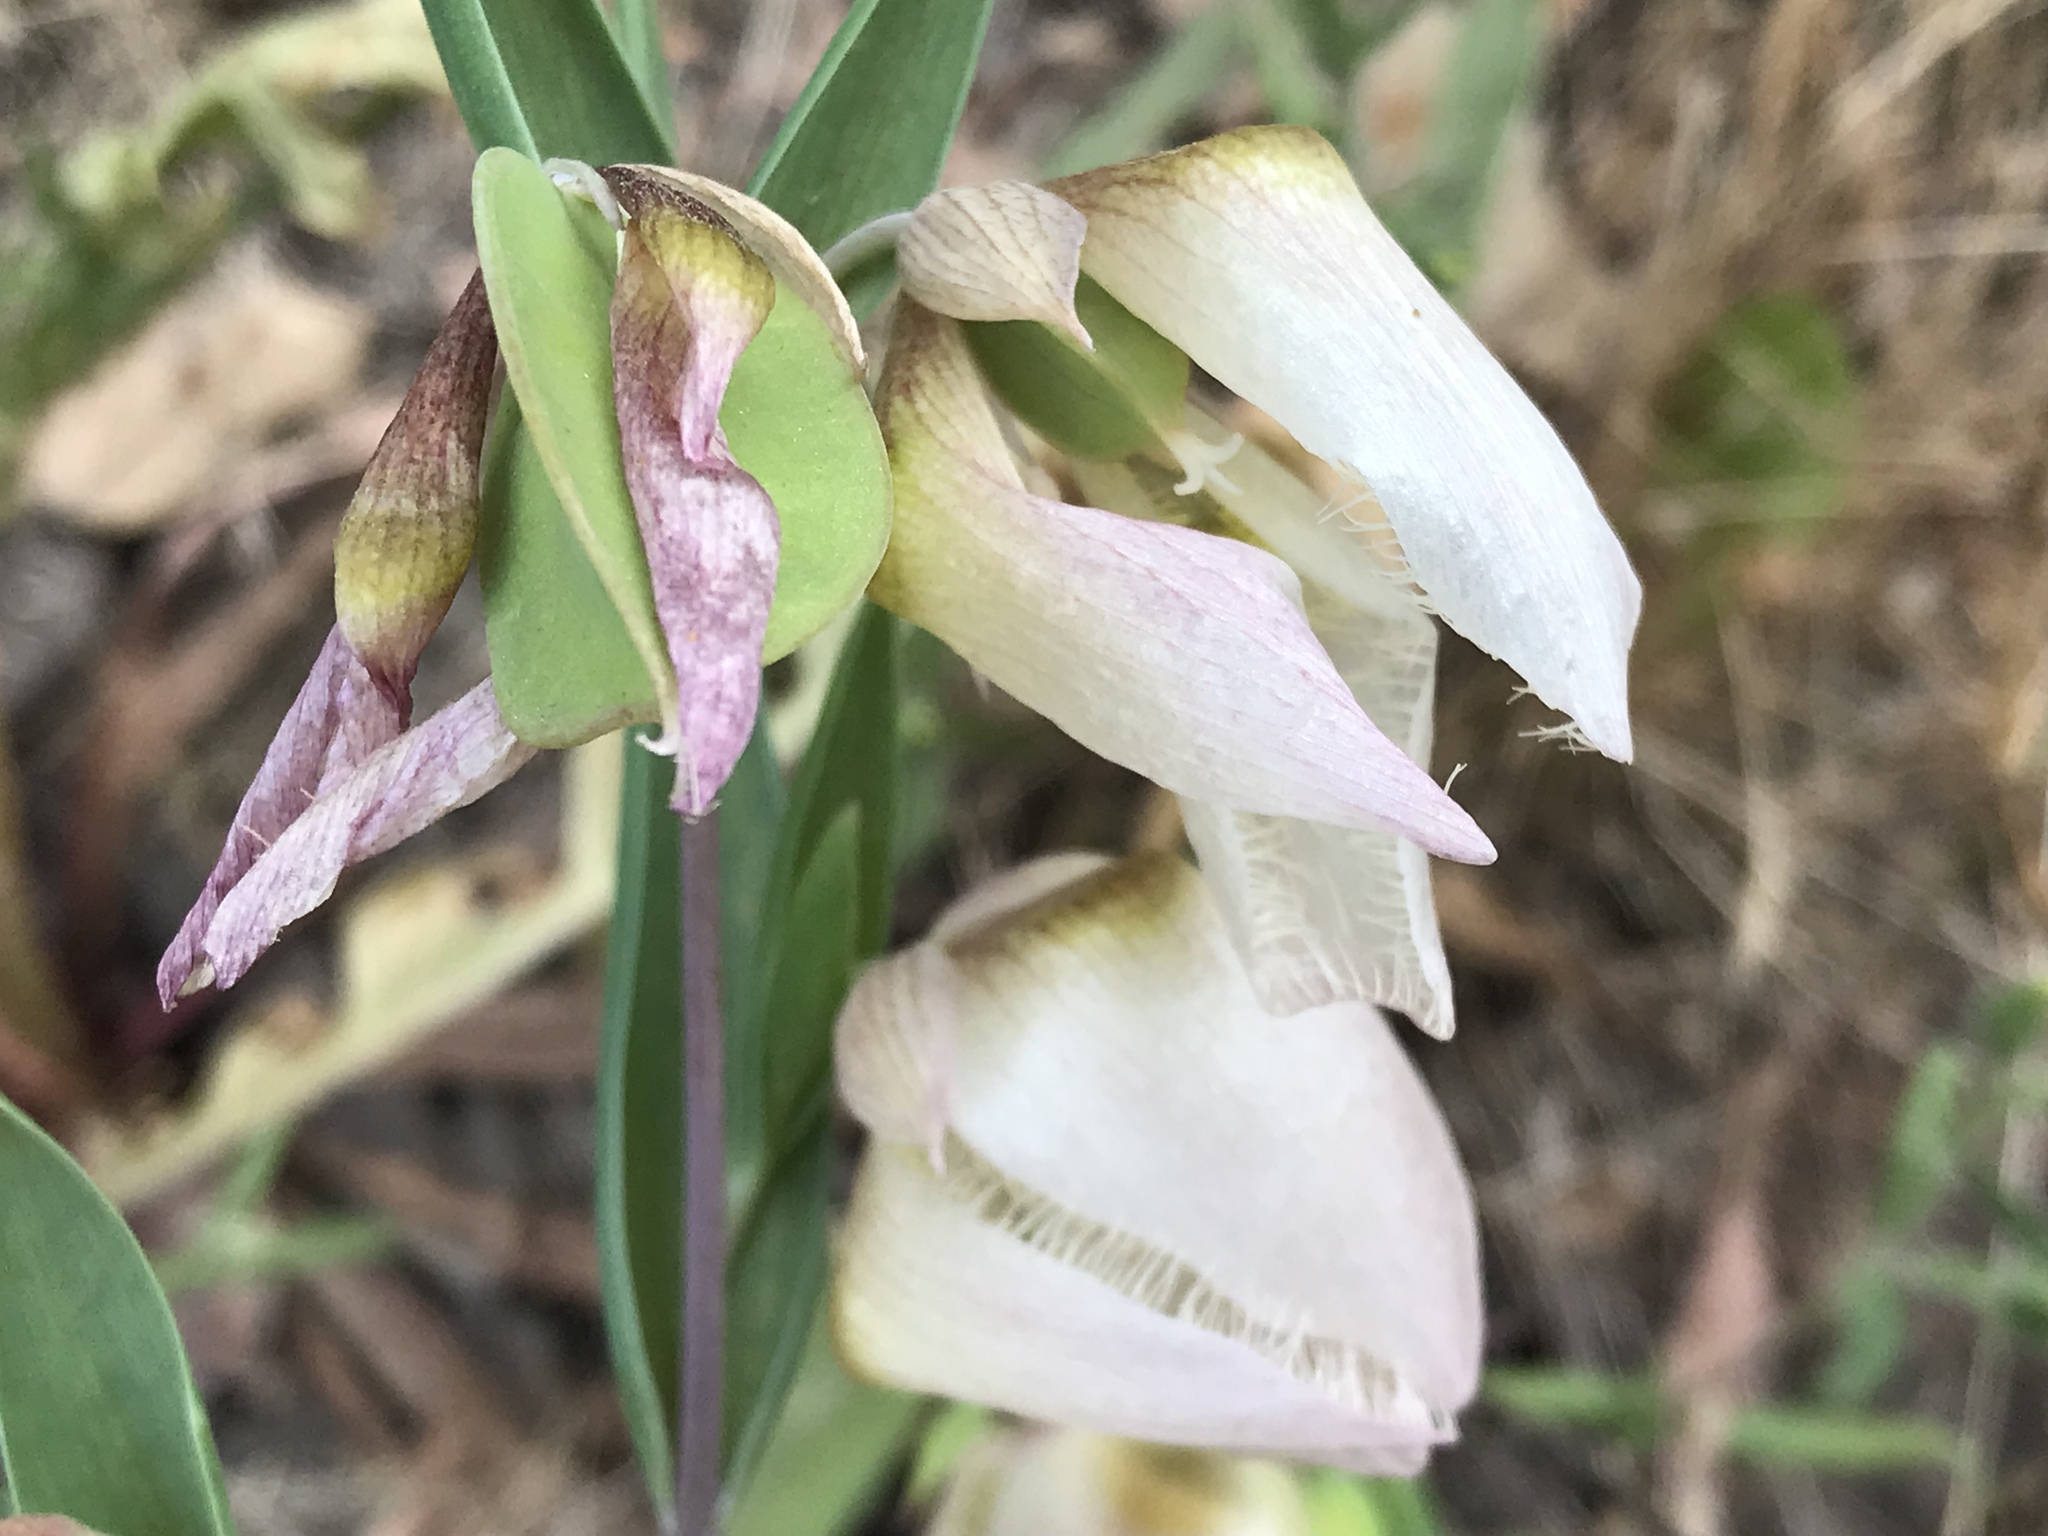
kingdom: Plantae
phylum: Tracheophyta
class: Liliopsida
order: Liliales
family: Liliaceae
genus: Calochortus
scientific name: Calochortus albus
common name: Fairy-lantern
